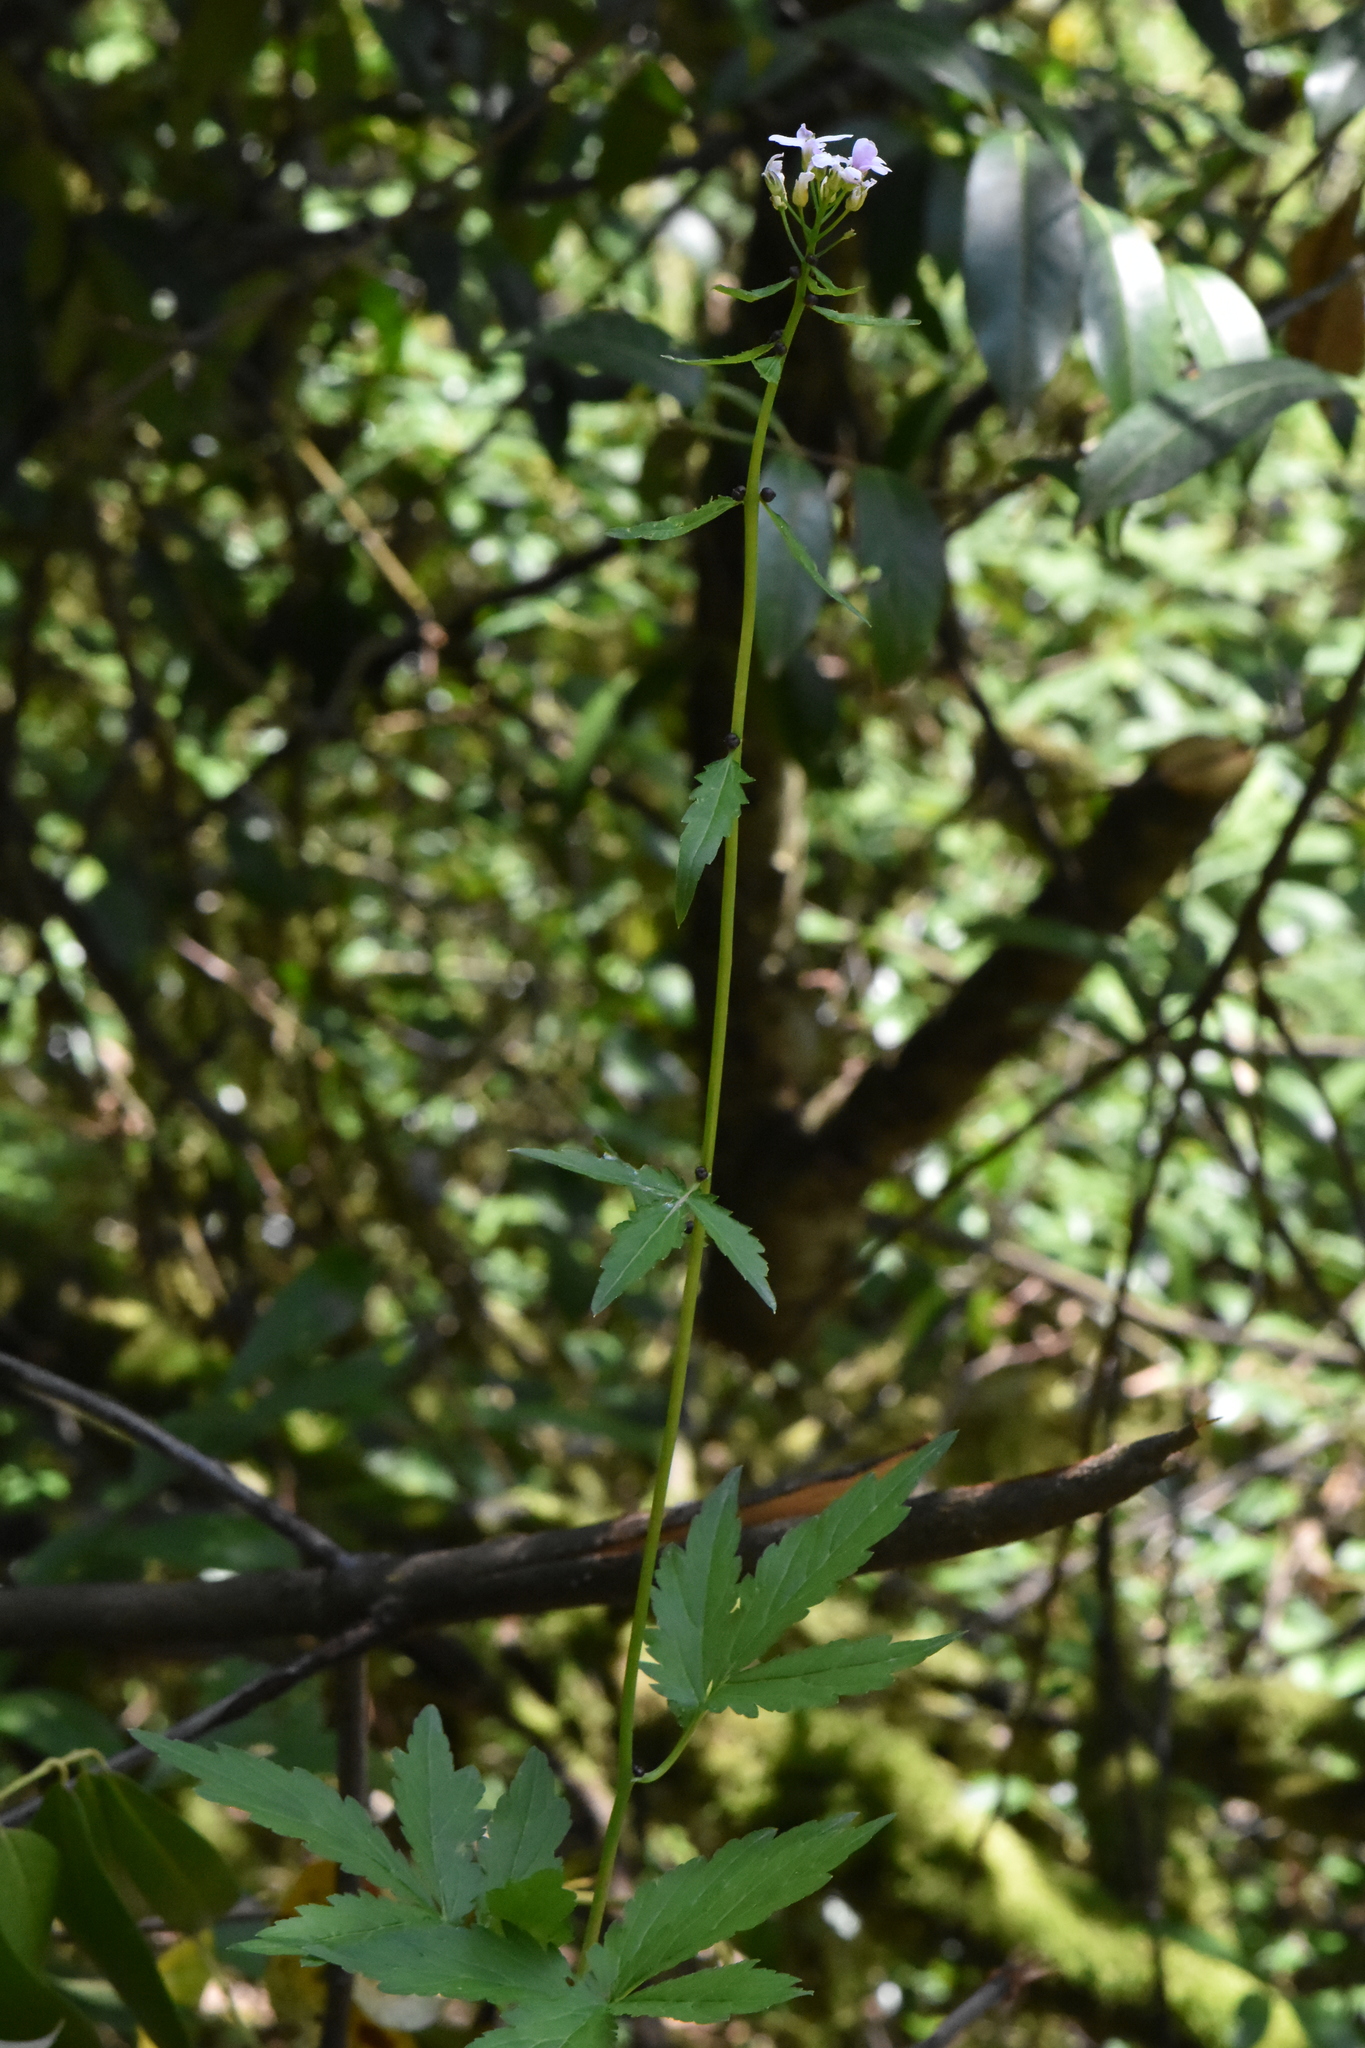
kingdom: Plantae
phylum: Tracheophyta
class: Magnoliopsida
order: Brassicales
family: Brassicaceae
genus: Cardamine
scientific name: Cardamine bulbifera
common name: Coralroot bittercress
